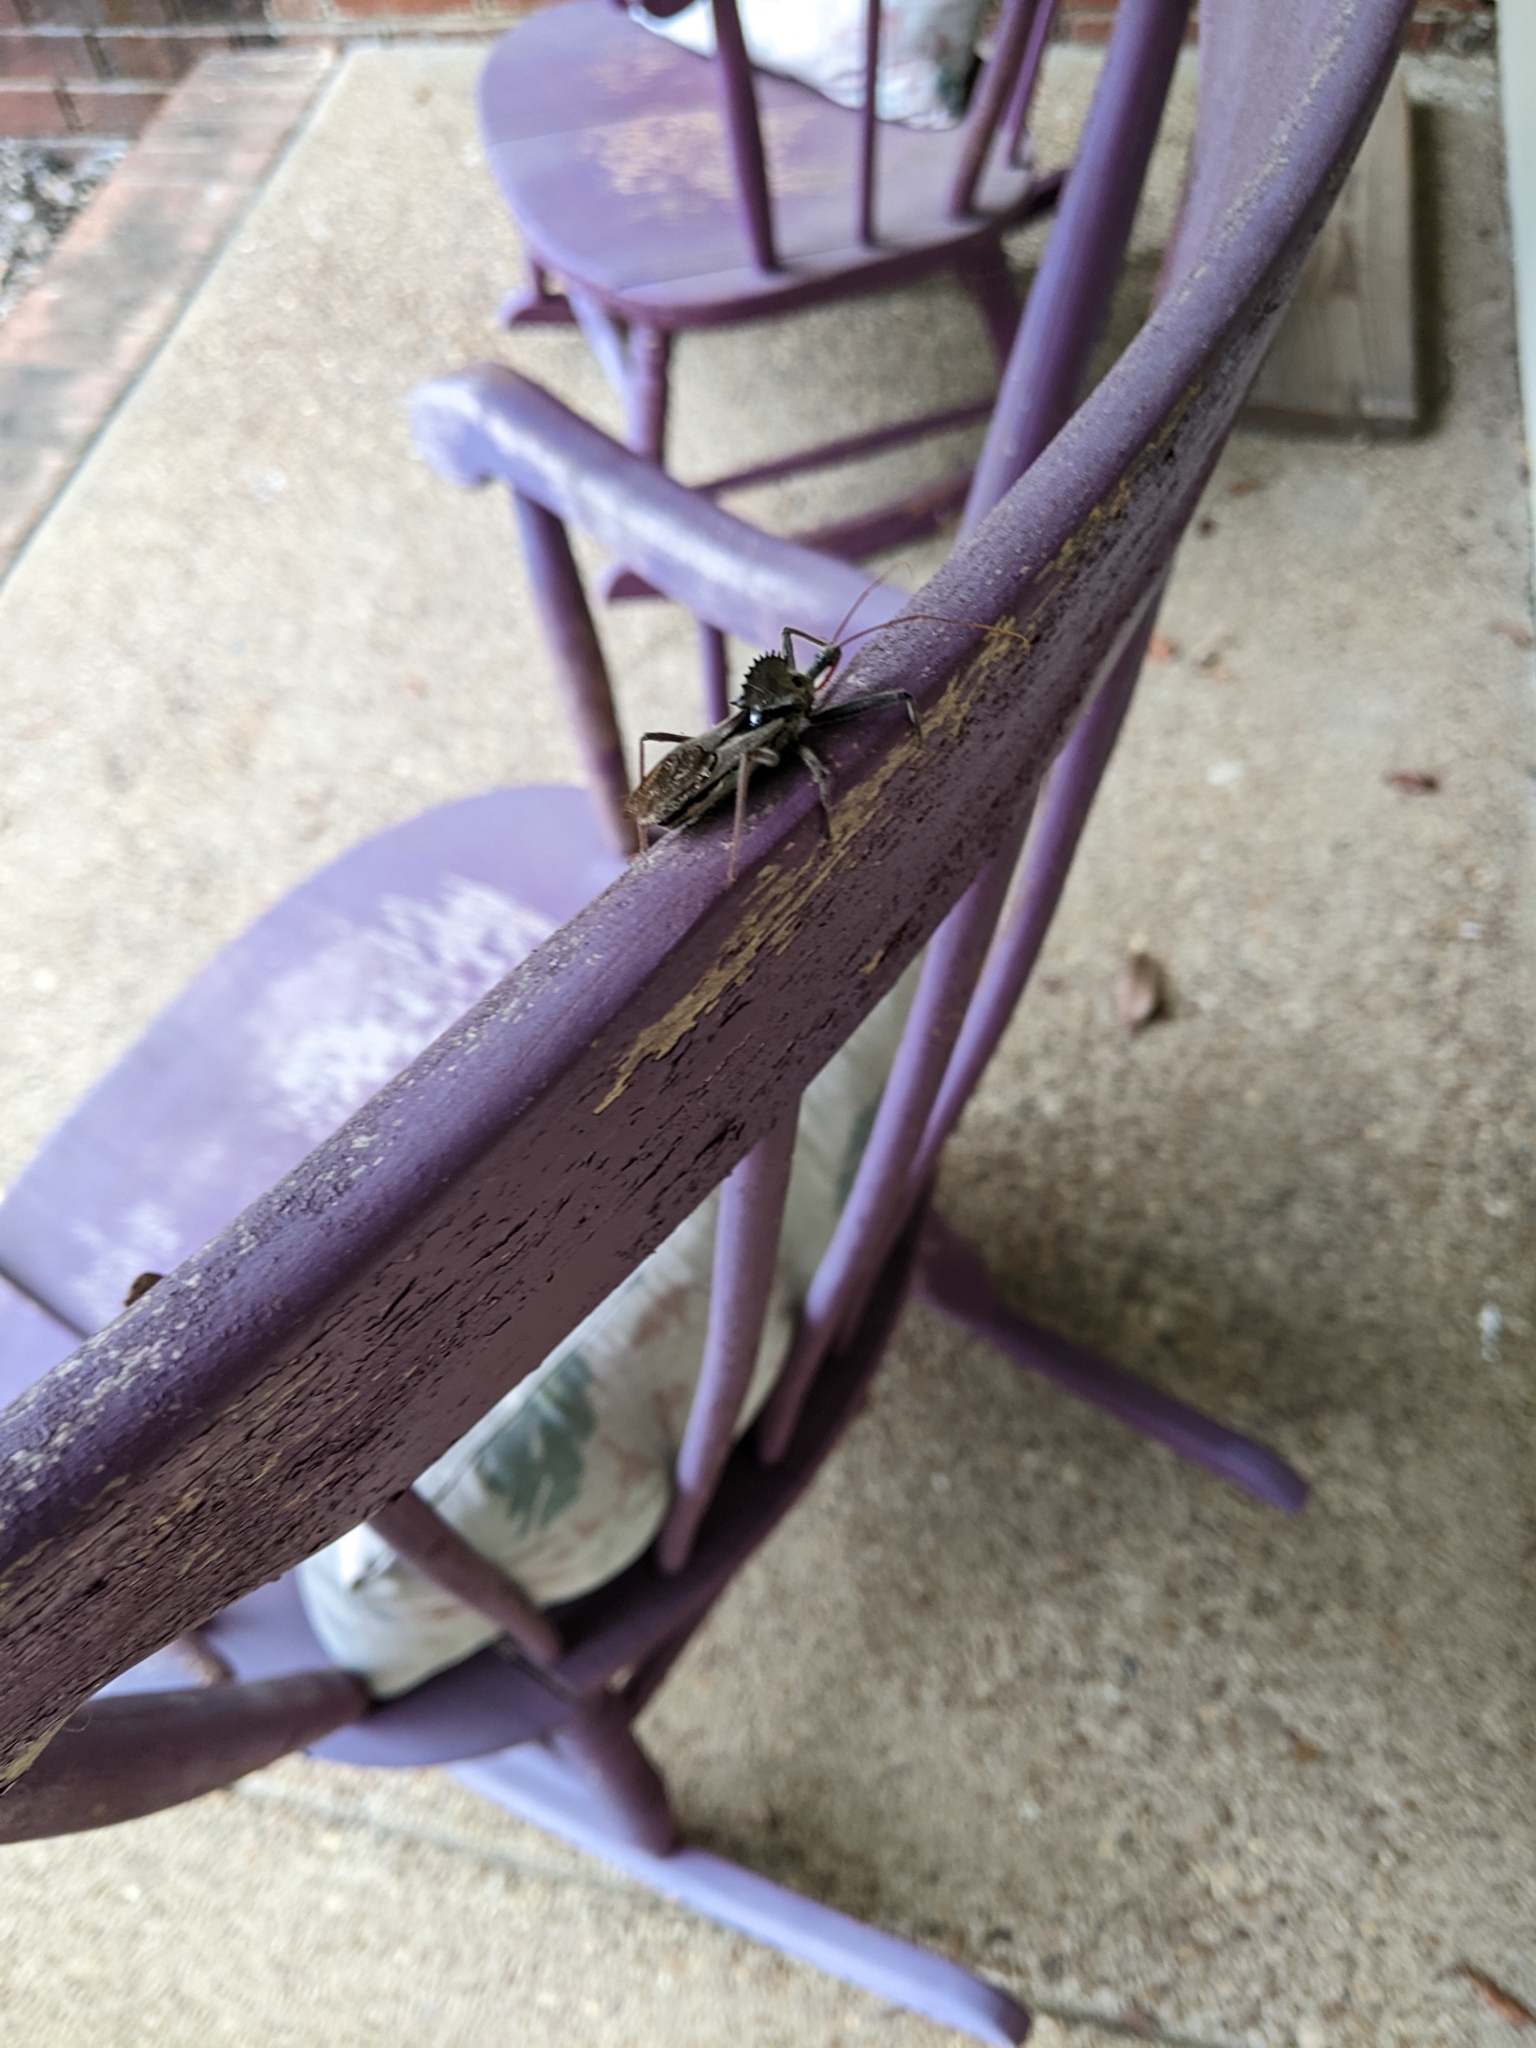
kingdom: Animalia
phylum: Arthropoda
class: Insecta
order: Hemiptera
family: Reduviidae
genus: Arilus
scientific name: Arilus cristatus
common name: North american wheel bug
